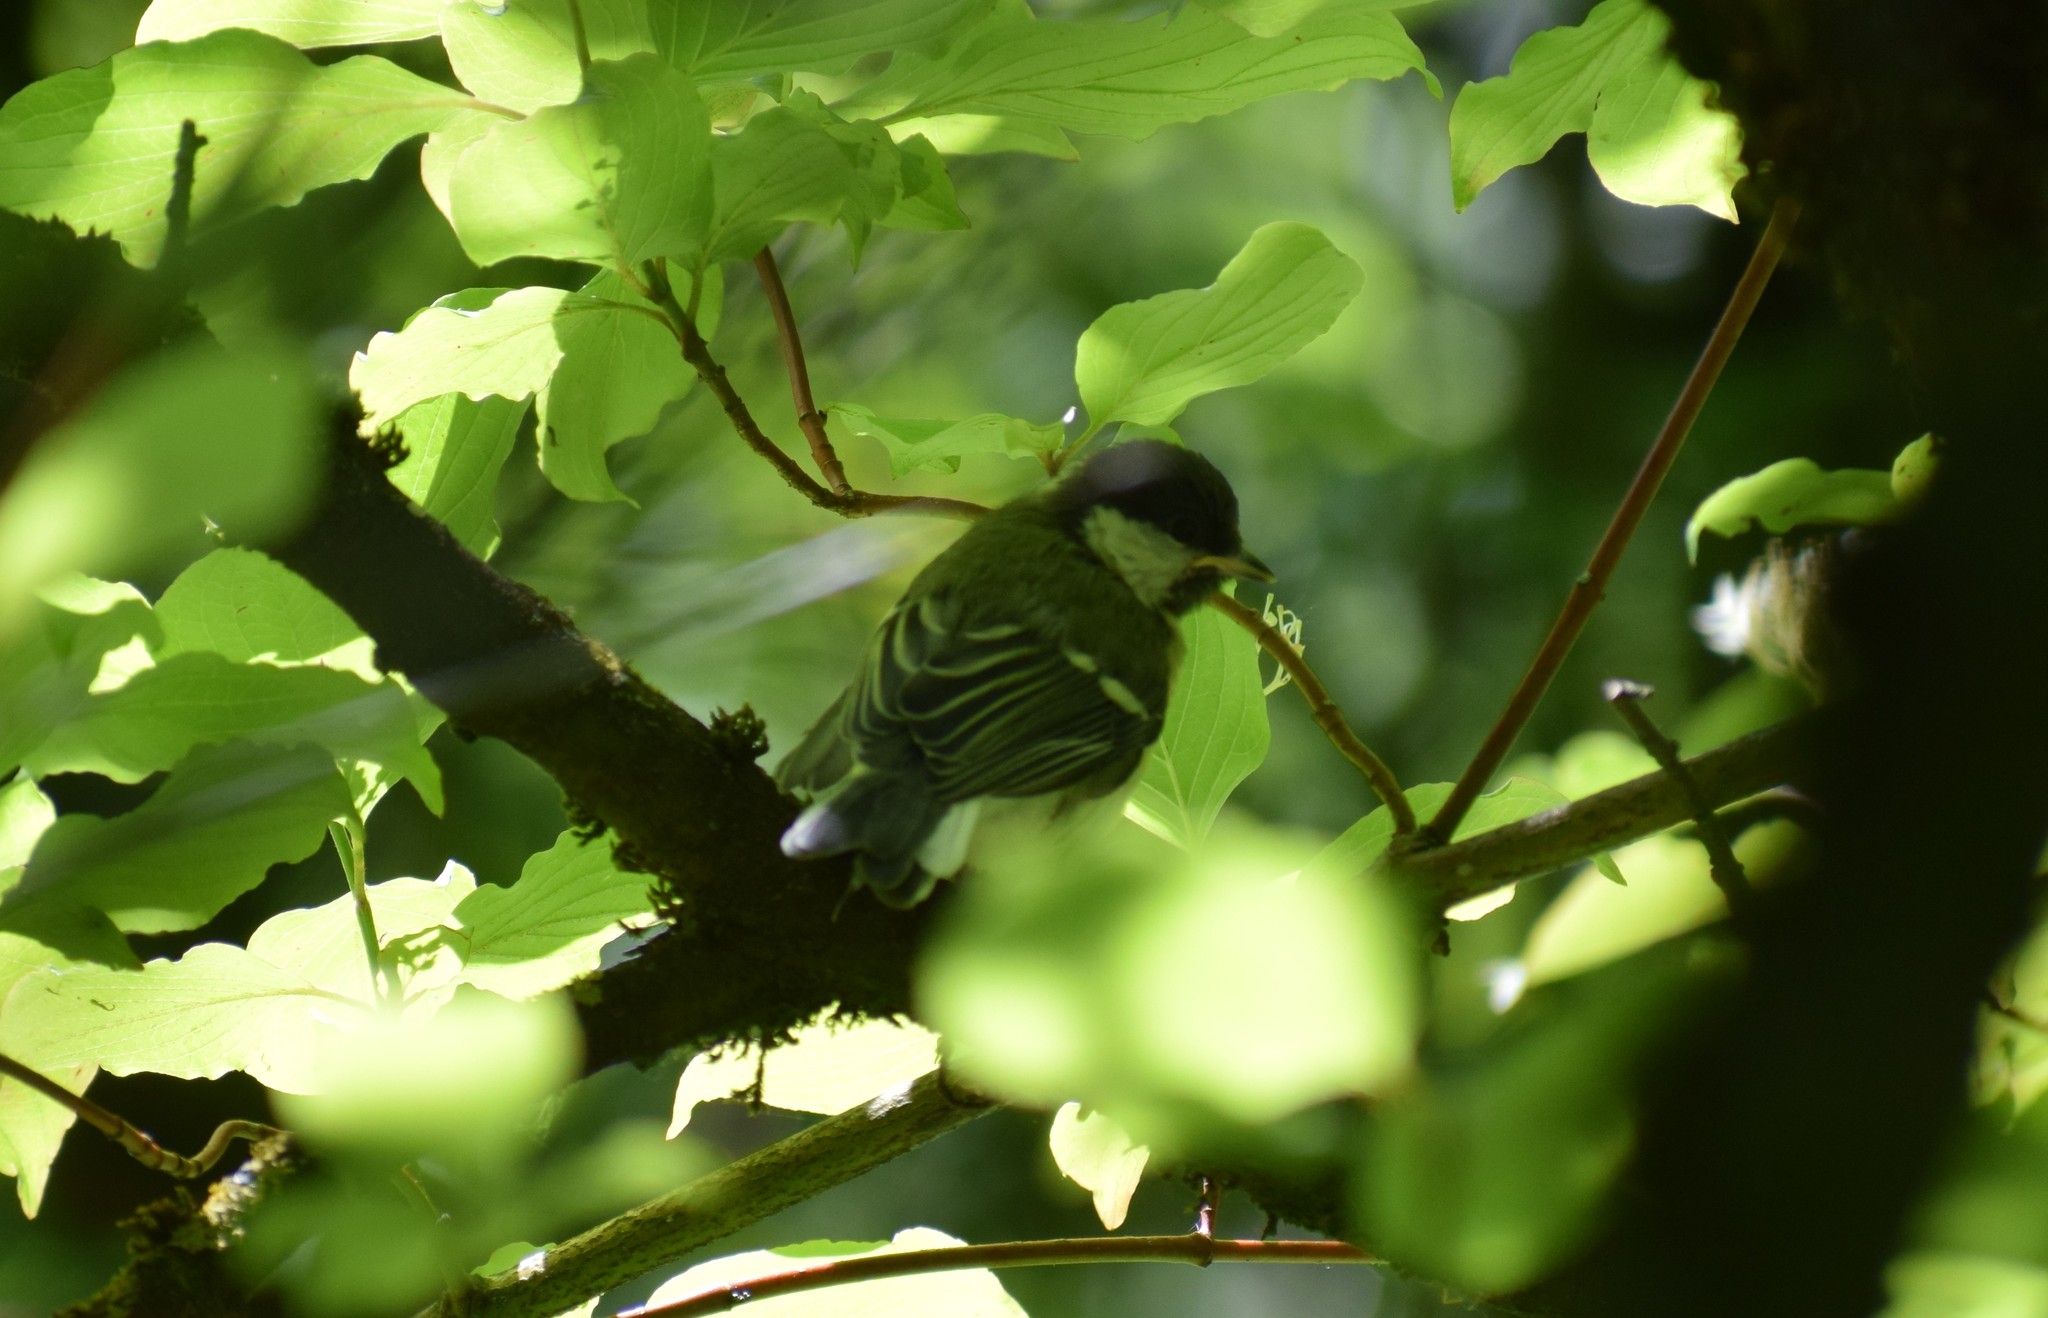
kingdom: Animalia
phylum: Chordata
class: Aves
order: Passeriformes
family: Paridae
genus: Parus
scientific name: Parus major
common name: Great tit
